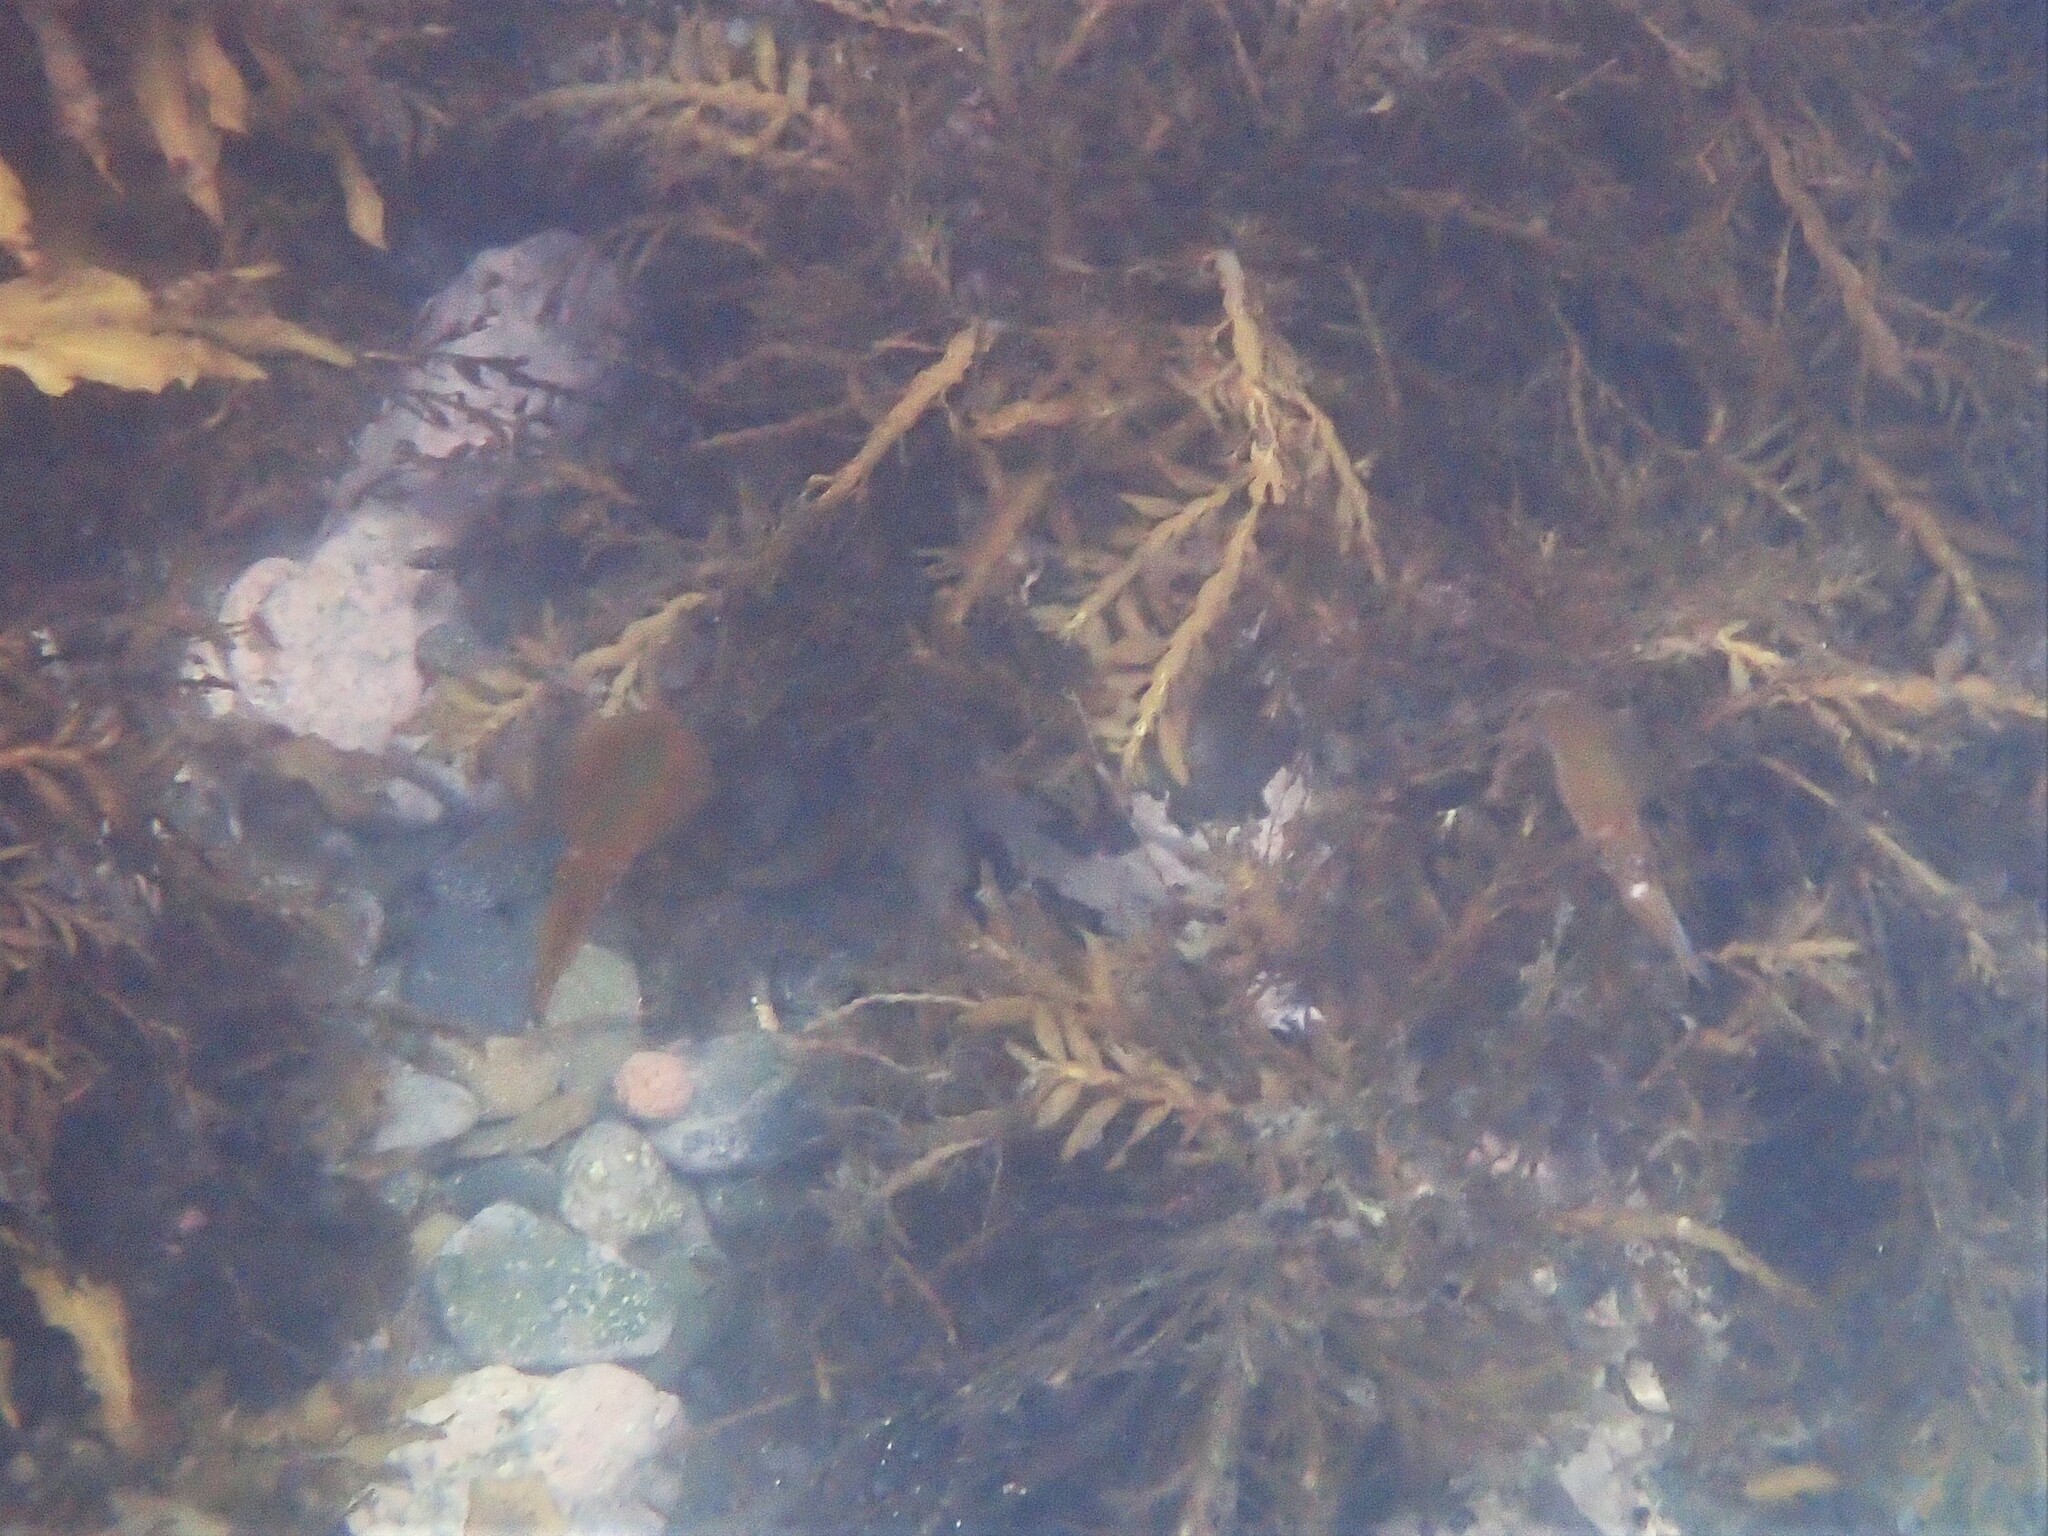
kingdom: Animalia
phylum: Mollusca
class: Cephalopoda
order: Myopsida
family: Loliginidae
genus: Sepioteuthis
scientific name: Sepioteuthis australis
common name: Southern reef squid
